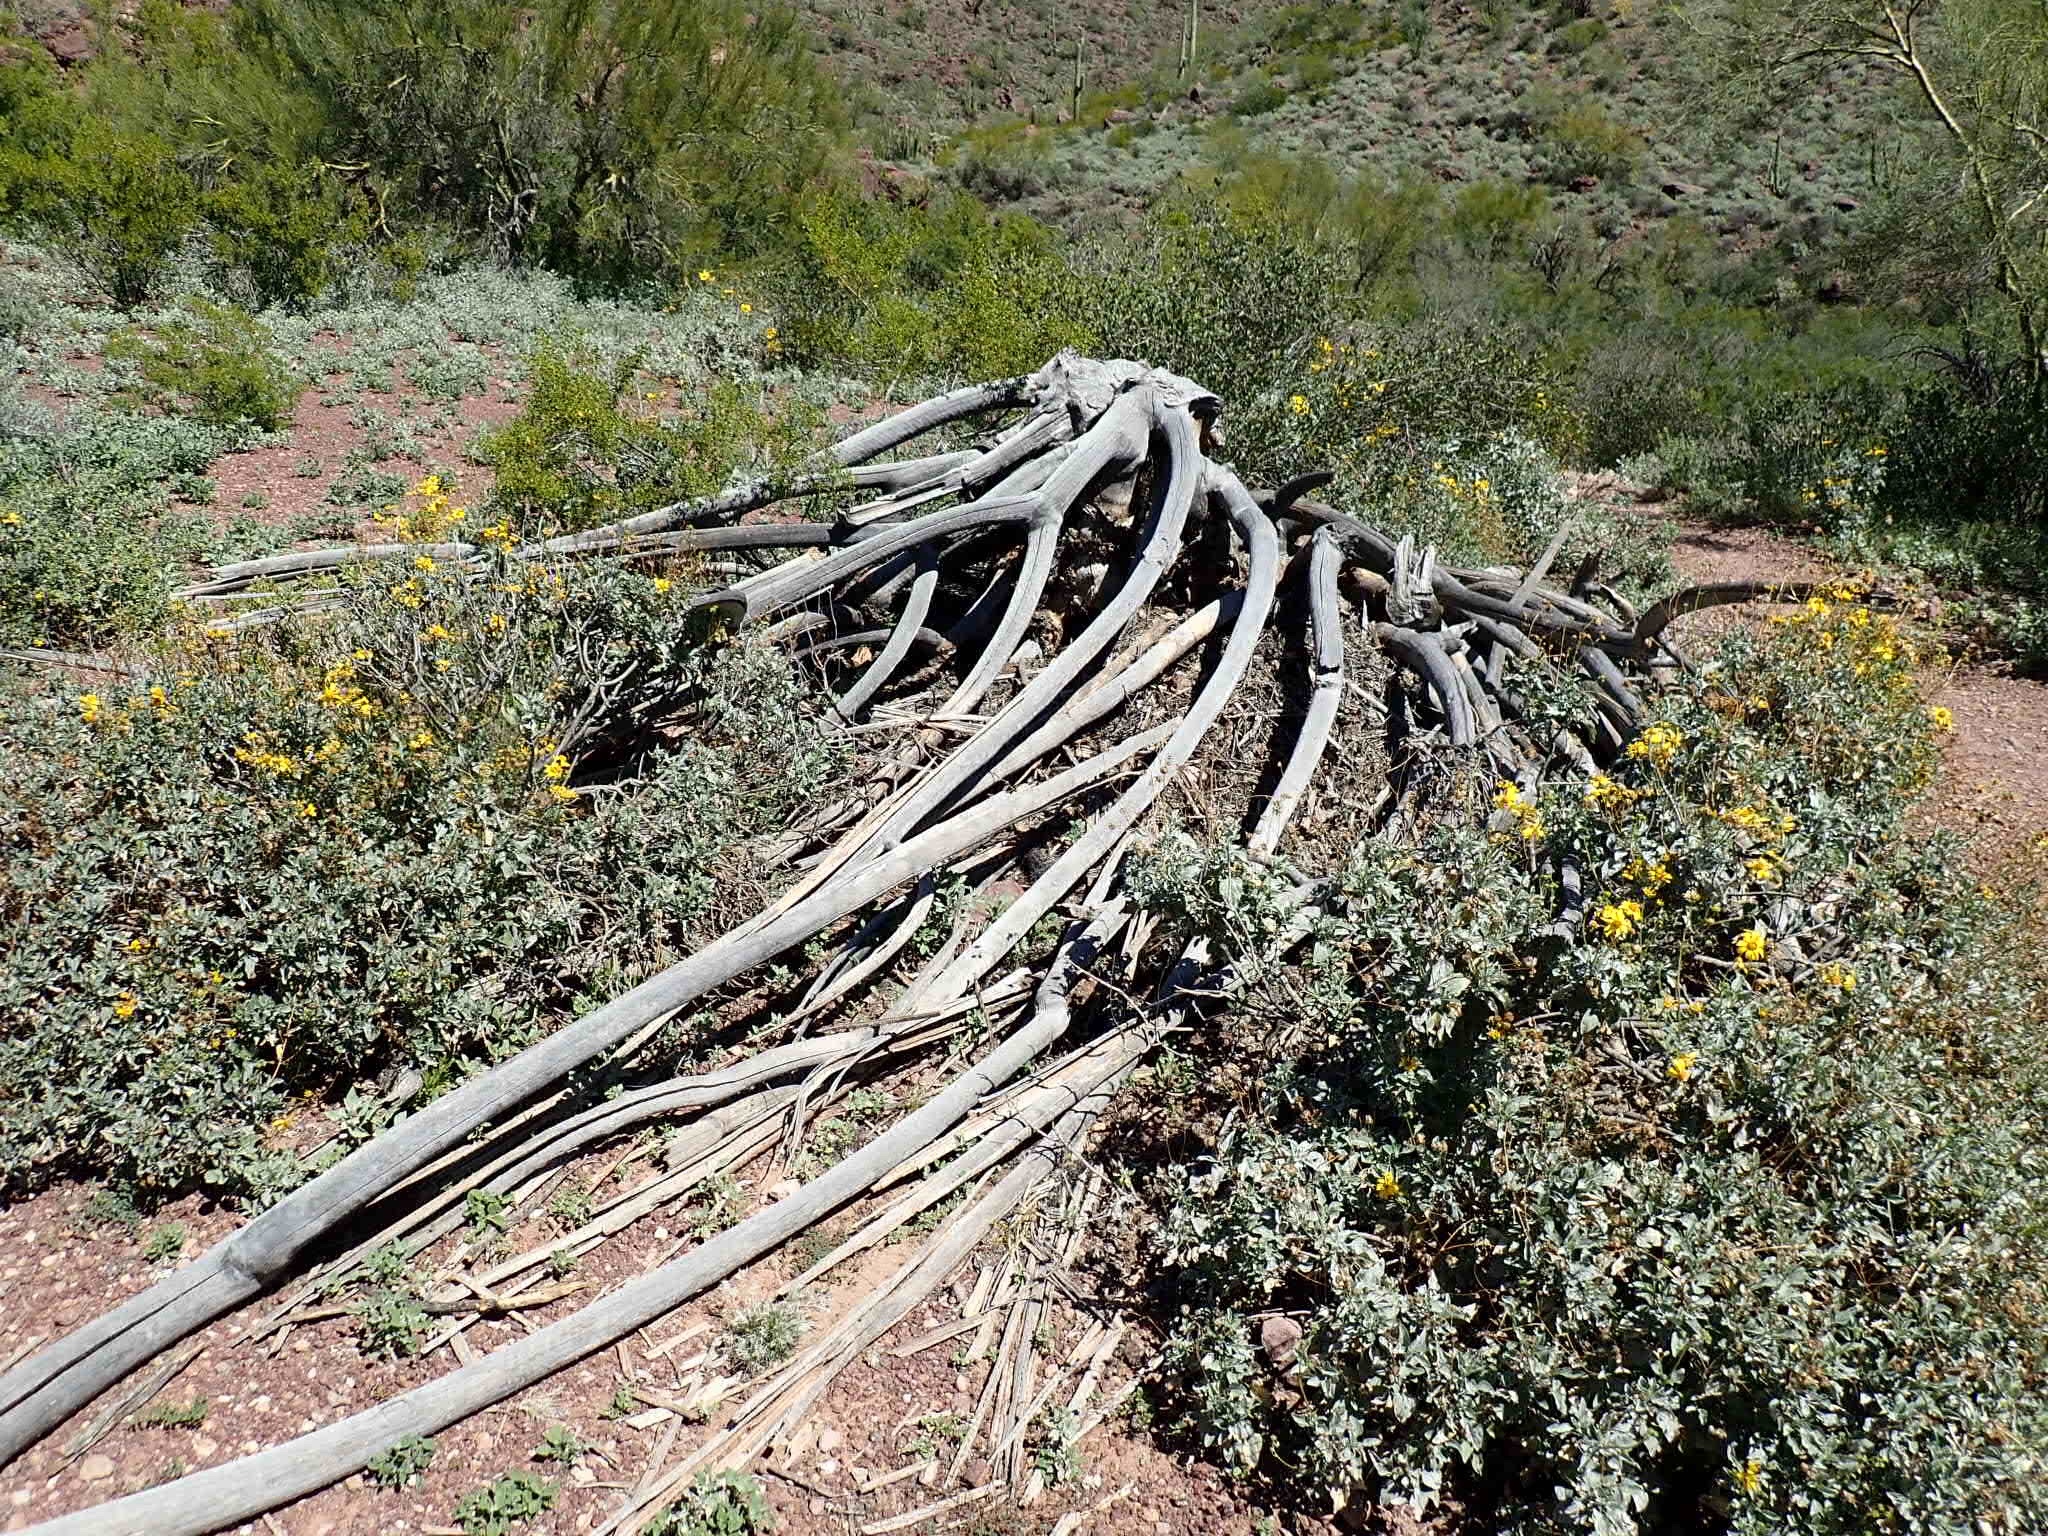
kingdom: Plantae
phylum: Tracheophyta
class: Magnoliopsida
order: Caryophyllales
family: Cactaceae
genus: Stenocereus
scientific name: Stenocereus thurberi
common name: Organ pipe cactus
